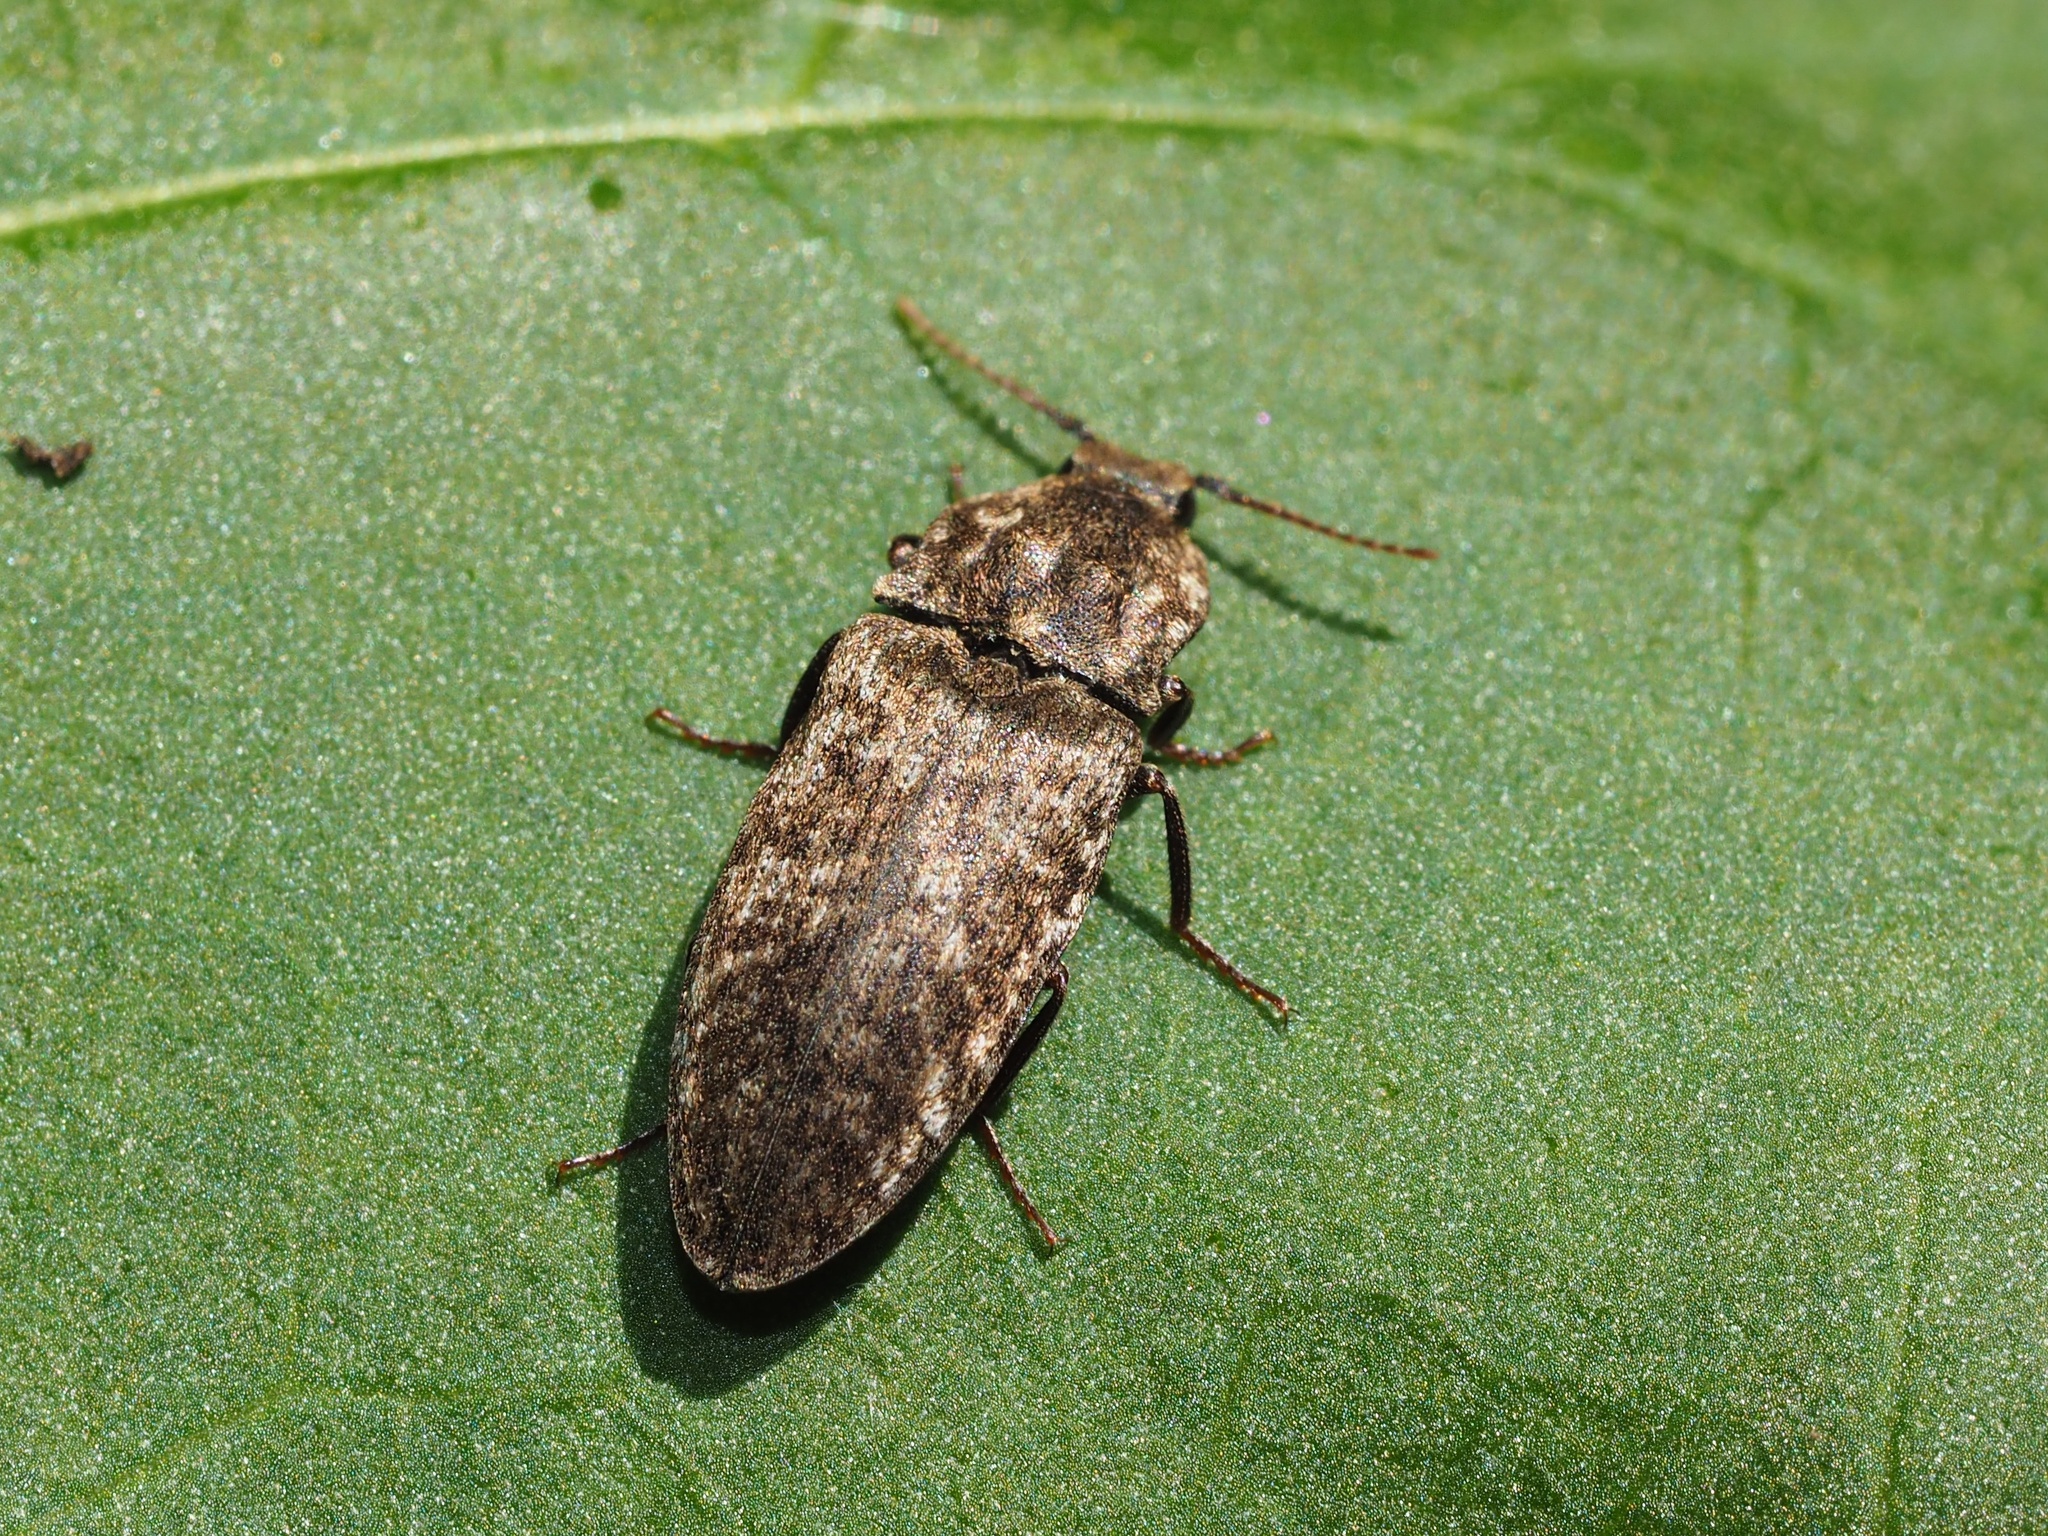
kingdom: Animalia
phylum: Arthropoda
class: Insecta
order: Coleoptera
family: Elateridae
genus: Agrypnus
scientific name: Agrypnus murinus
